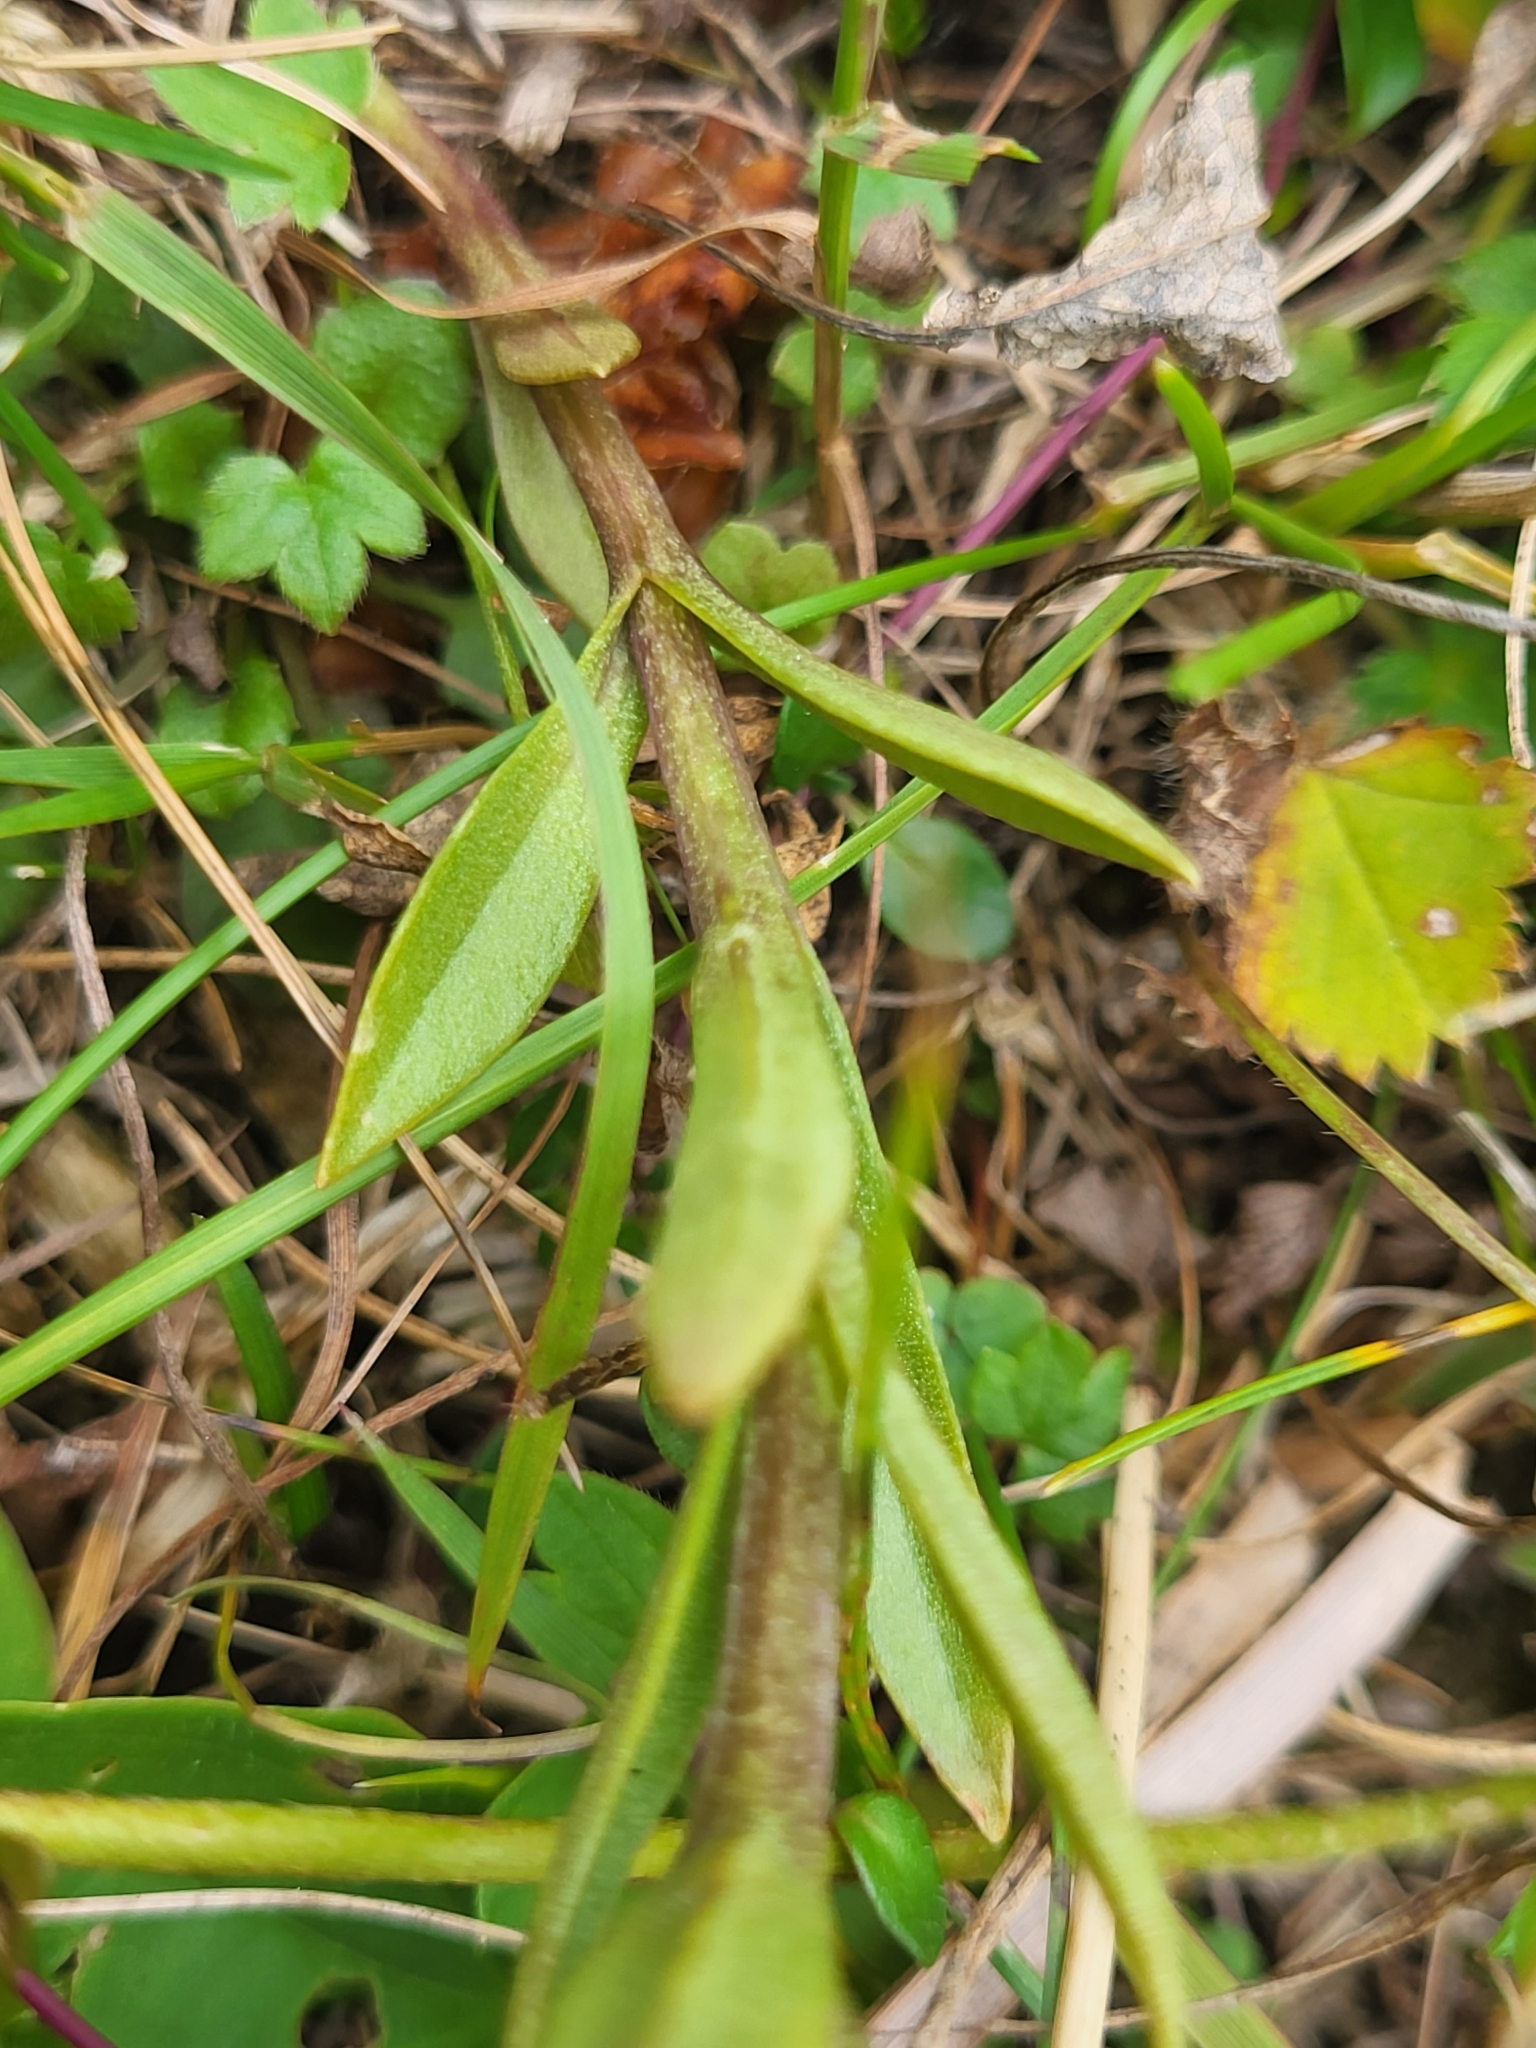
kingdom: Plantae
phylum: Tracheophyta
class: Magnoliopsida
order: Gentianales
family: Gentianaceae
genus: Gentianopsis
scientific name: Gentianopsis ciliata
